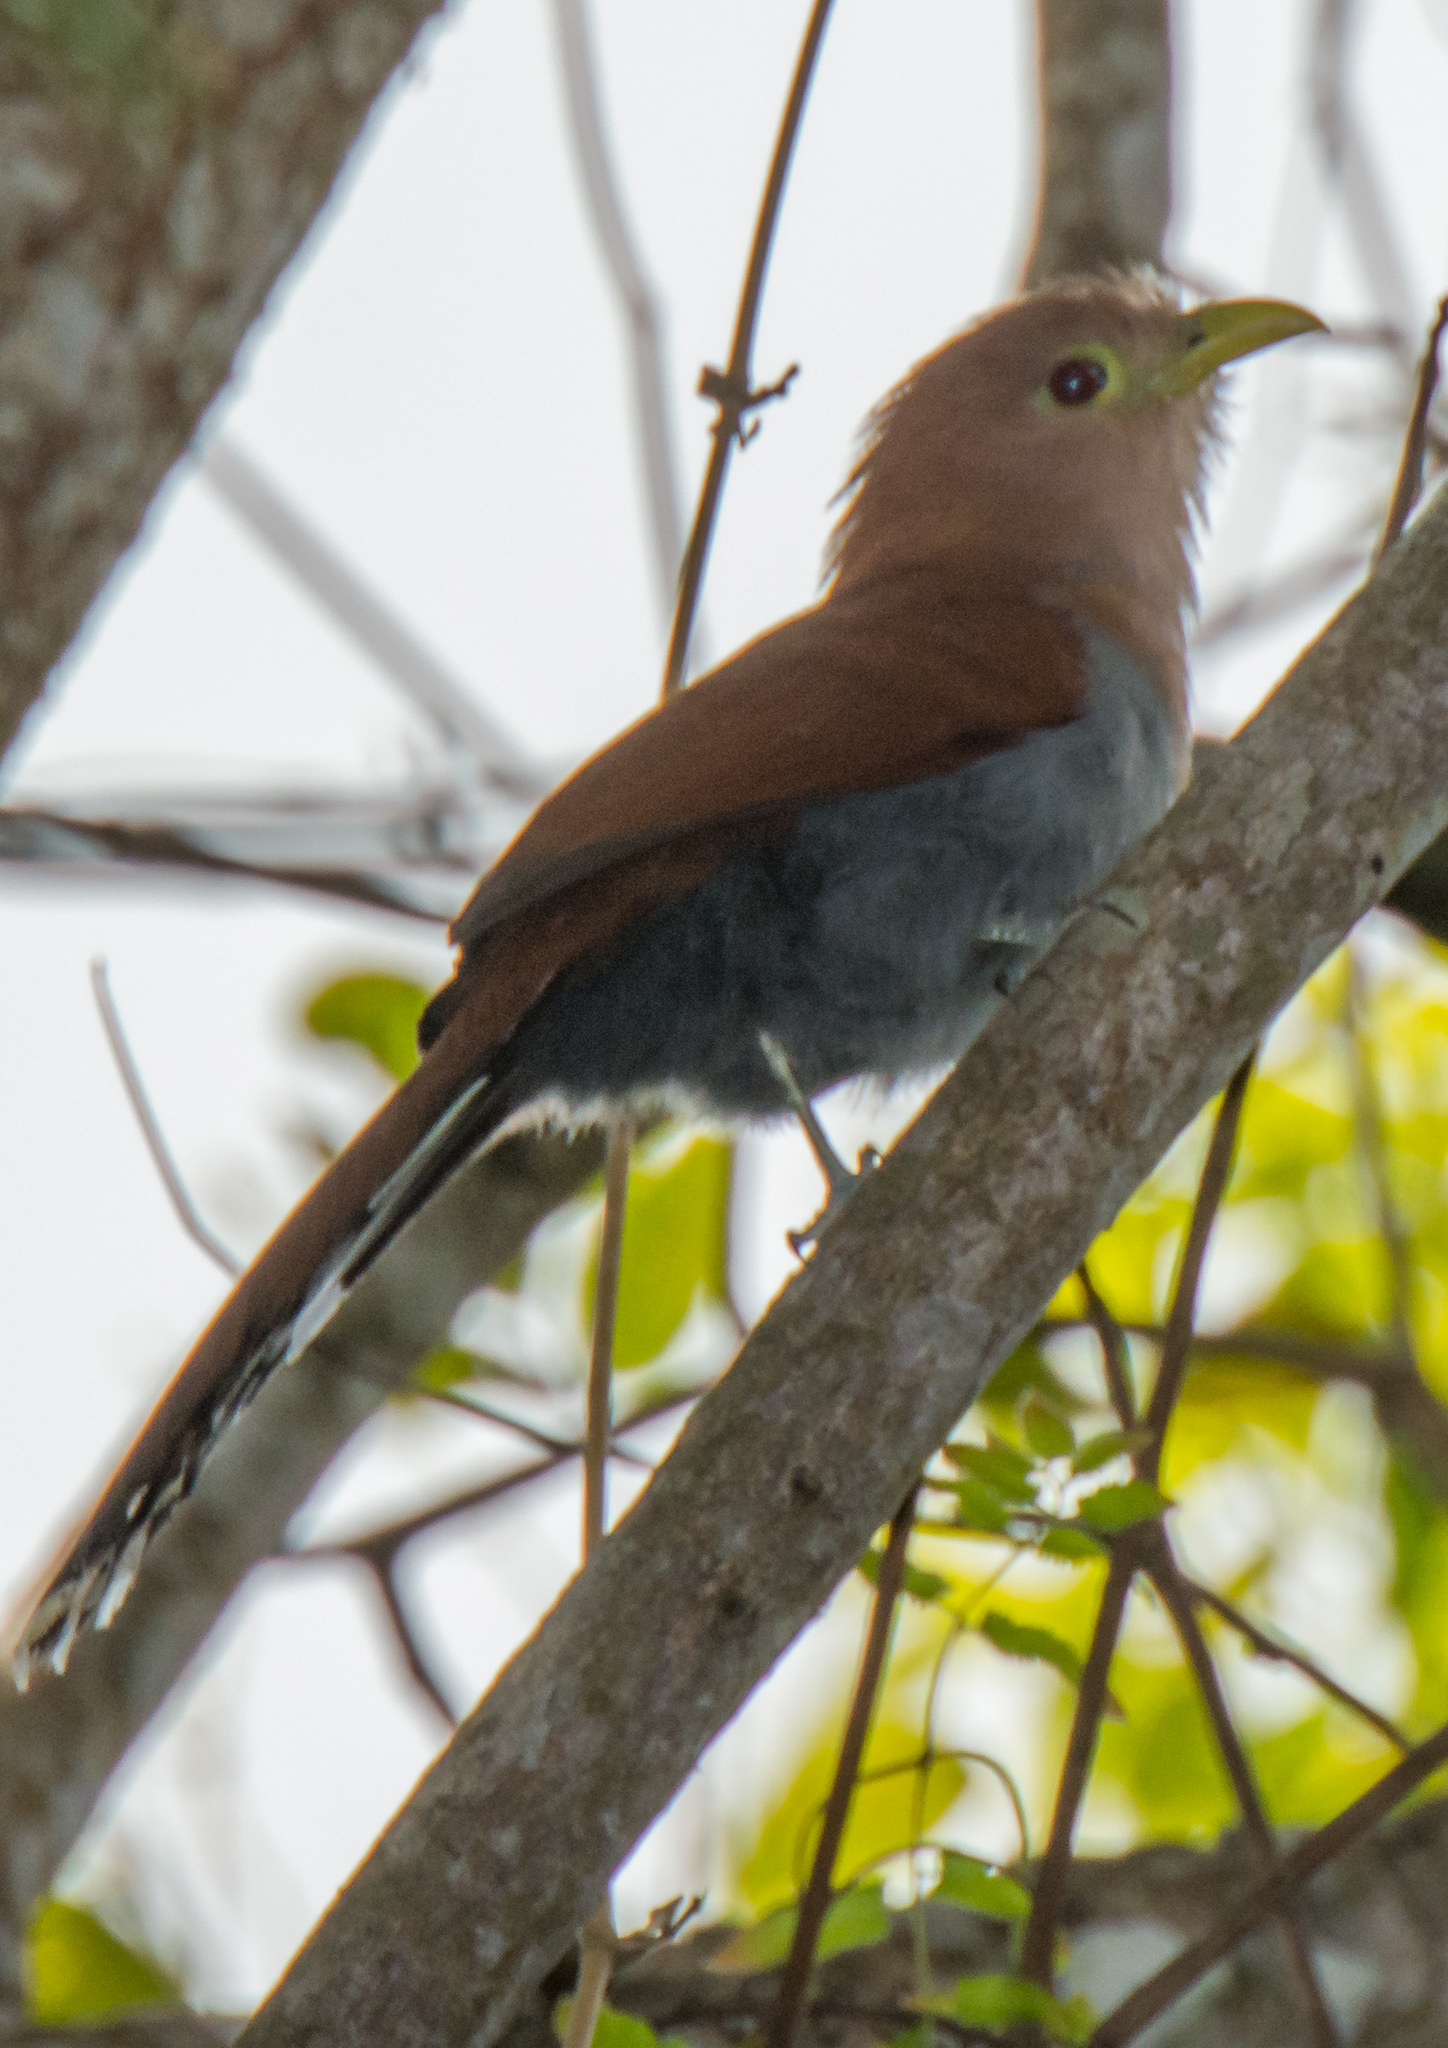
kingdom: Animalia
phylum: Chordata
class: Aves
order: Cuculiformes
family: Cuculidae
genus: Piaya
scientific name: Piaya cayana
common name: Squirrel cuckoo
